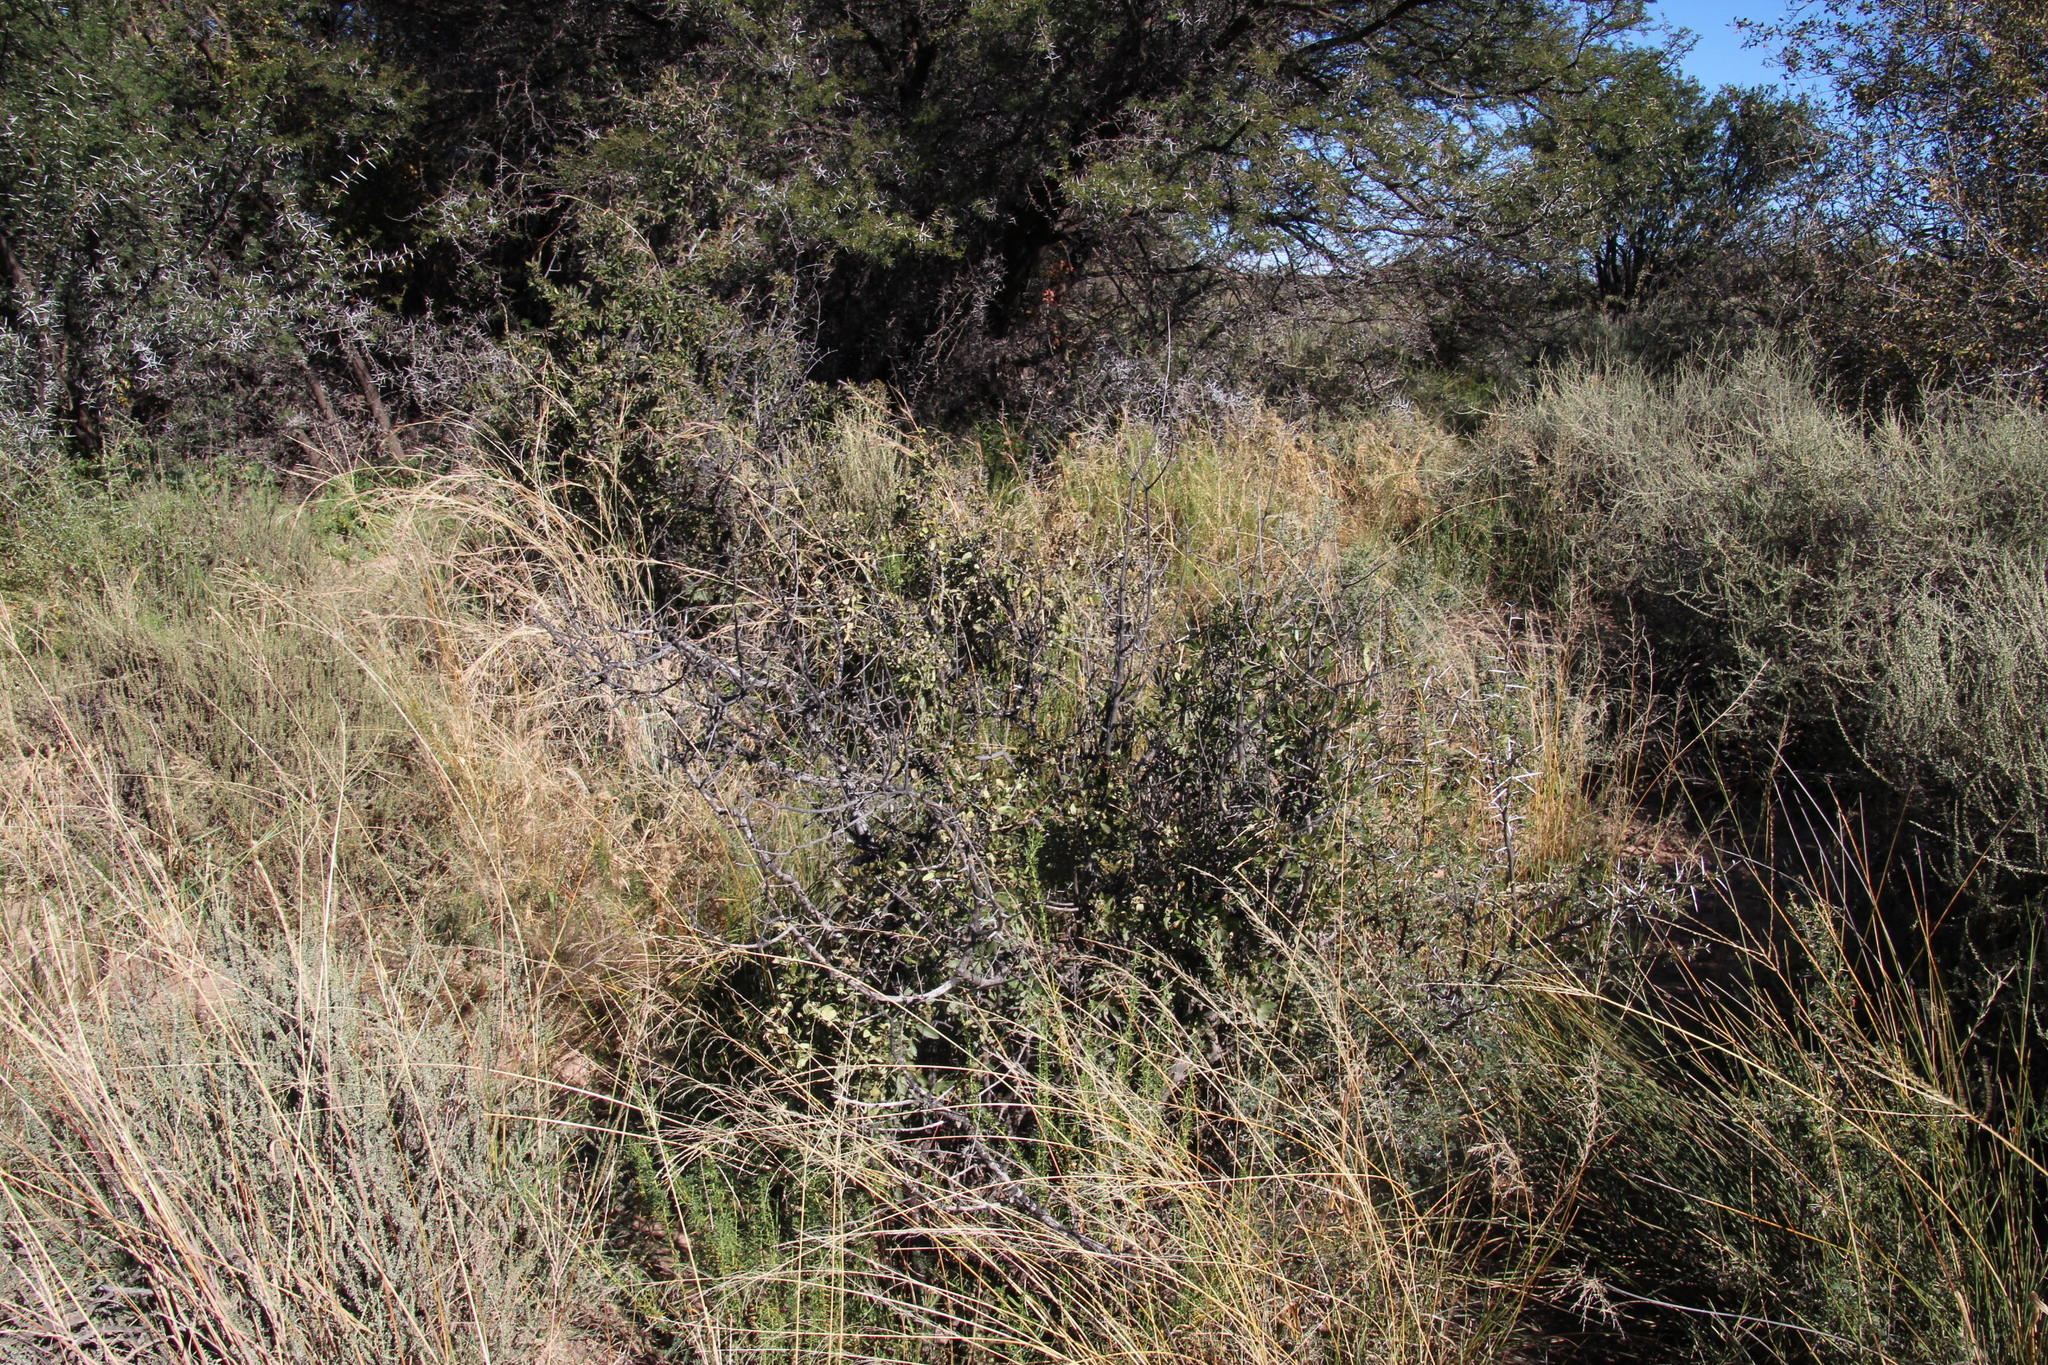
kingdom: Plantae
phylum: Tracheophyta
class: Magnoliopsida
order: Ericales
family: Ebenaceae
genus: Diospyros
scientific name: Diospyros lycioides
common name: Red star apple
